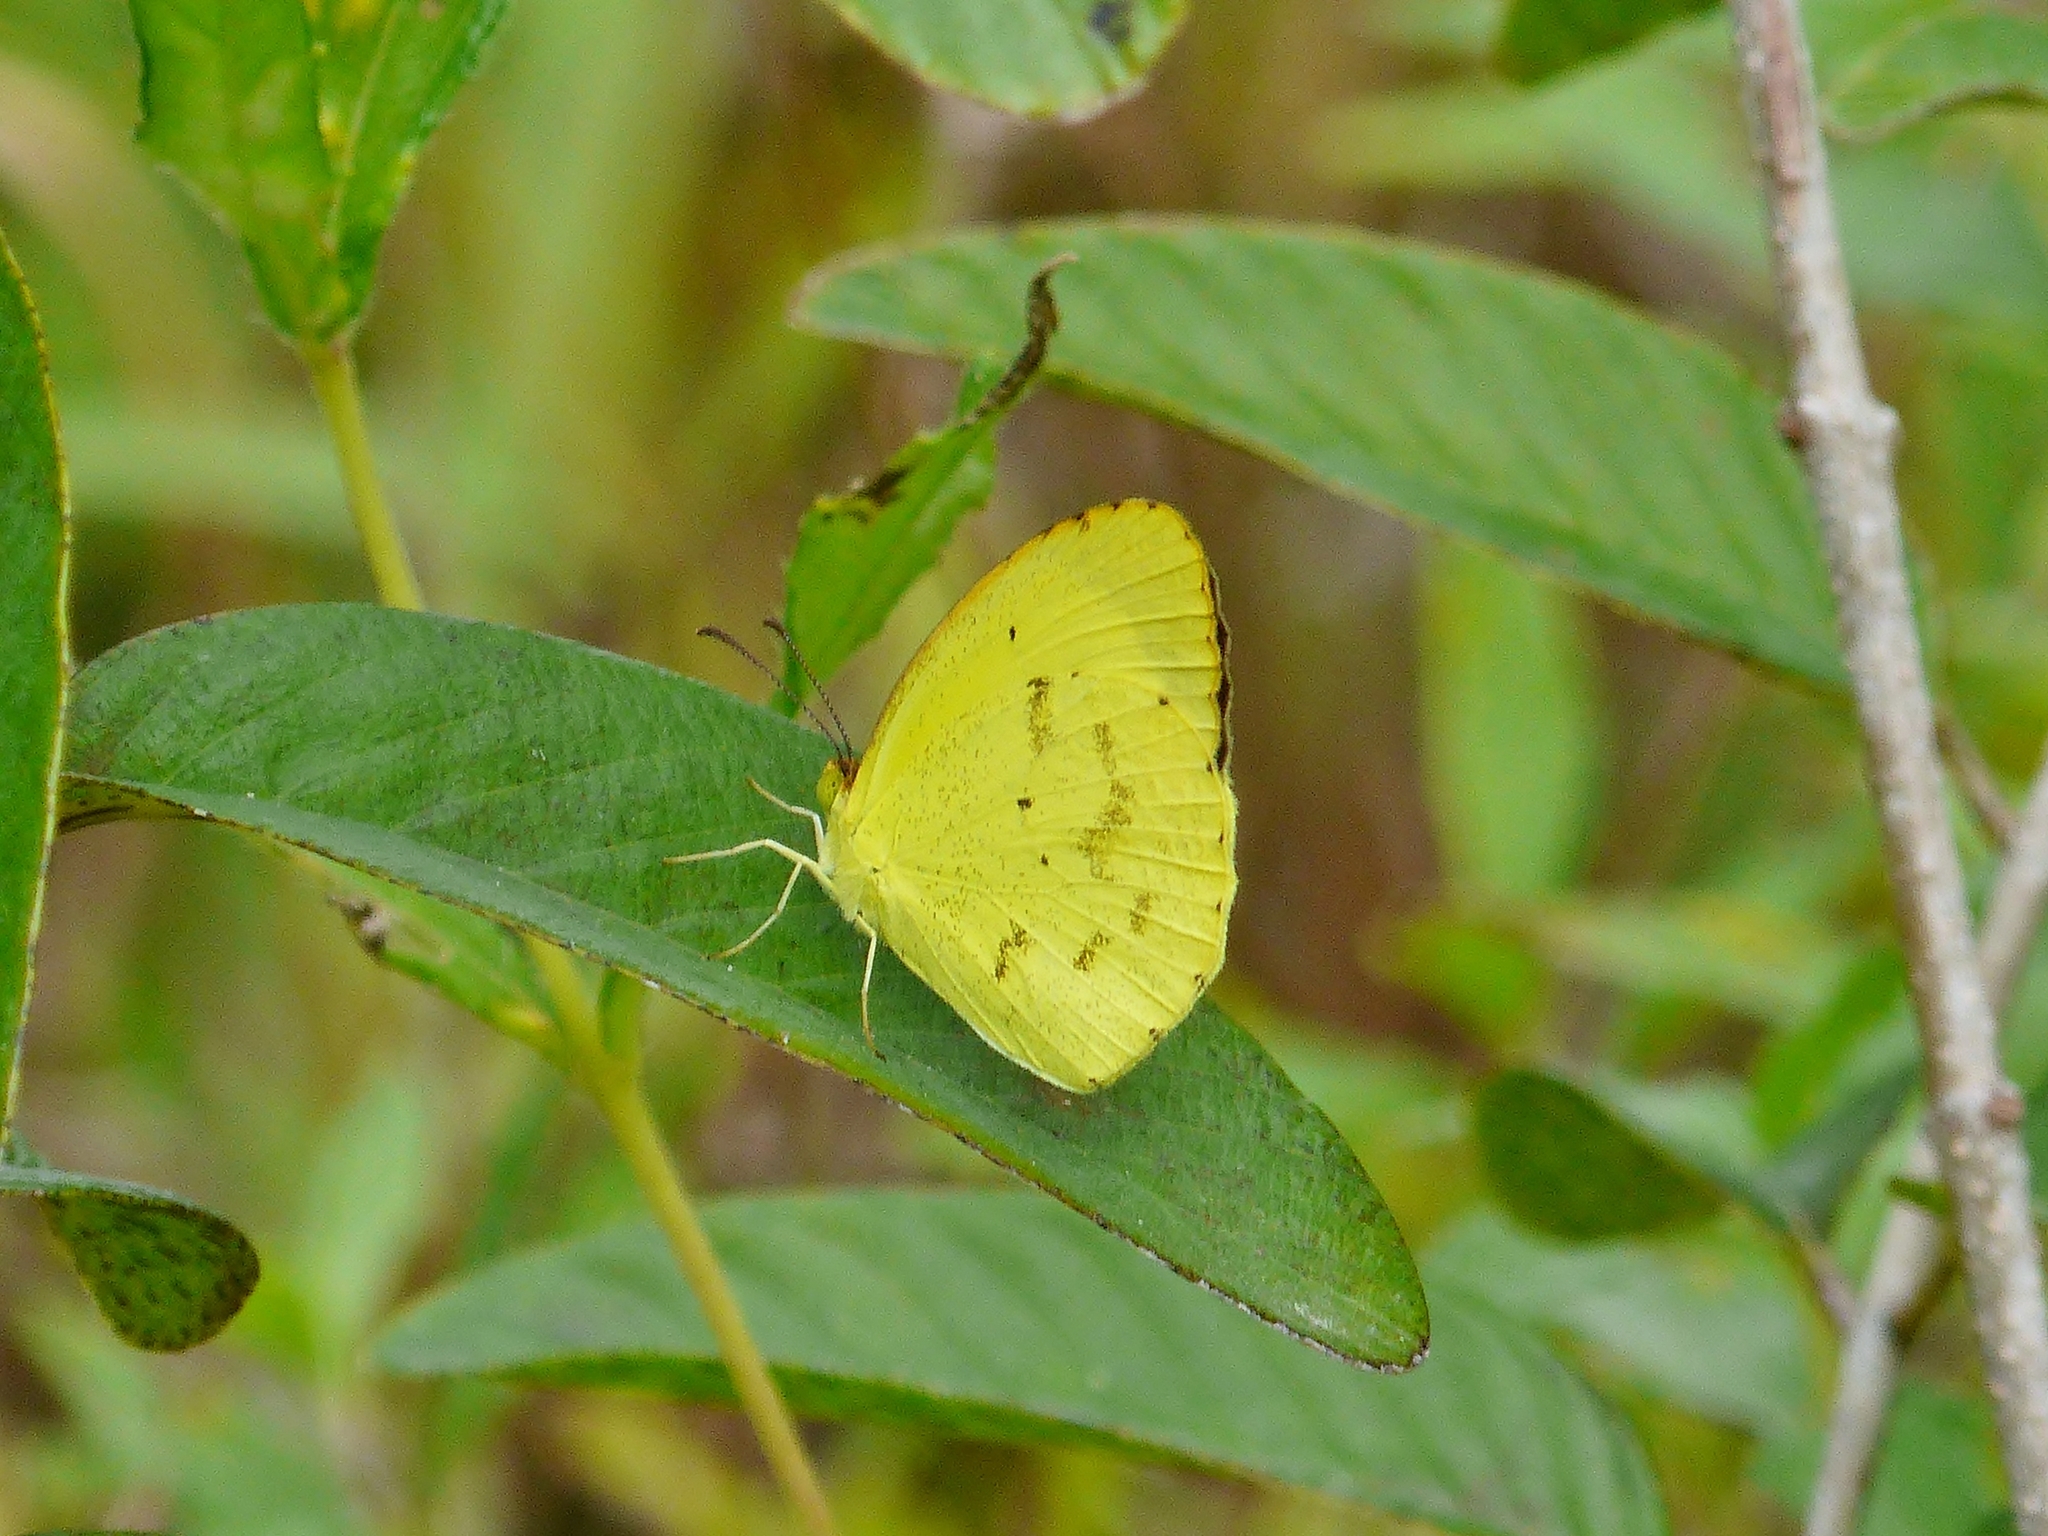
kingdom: Animalia
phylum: Arthropoda
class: Insecta
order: Lepidoptera
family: Pieridae
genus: Pyrisitia
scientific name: Pyrisitia nise
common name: Mimosa yellow
